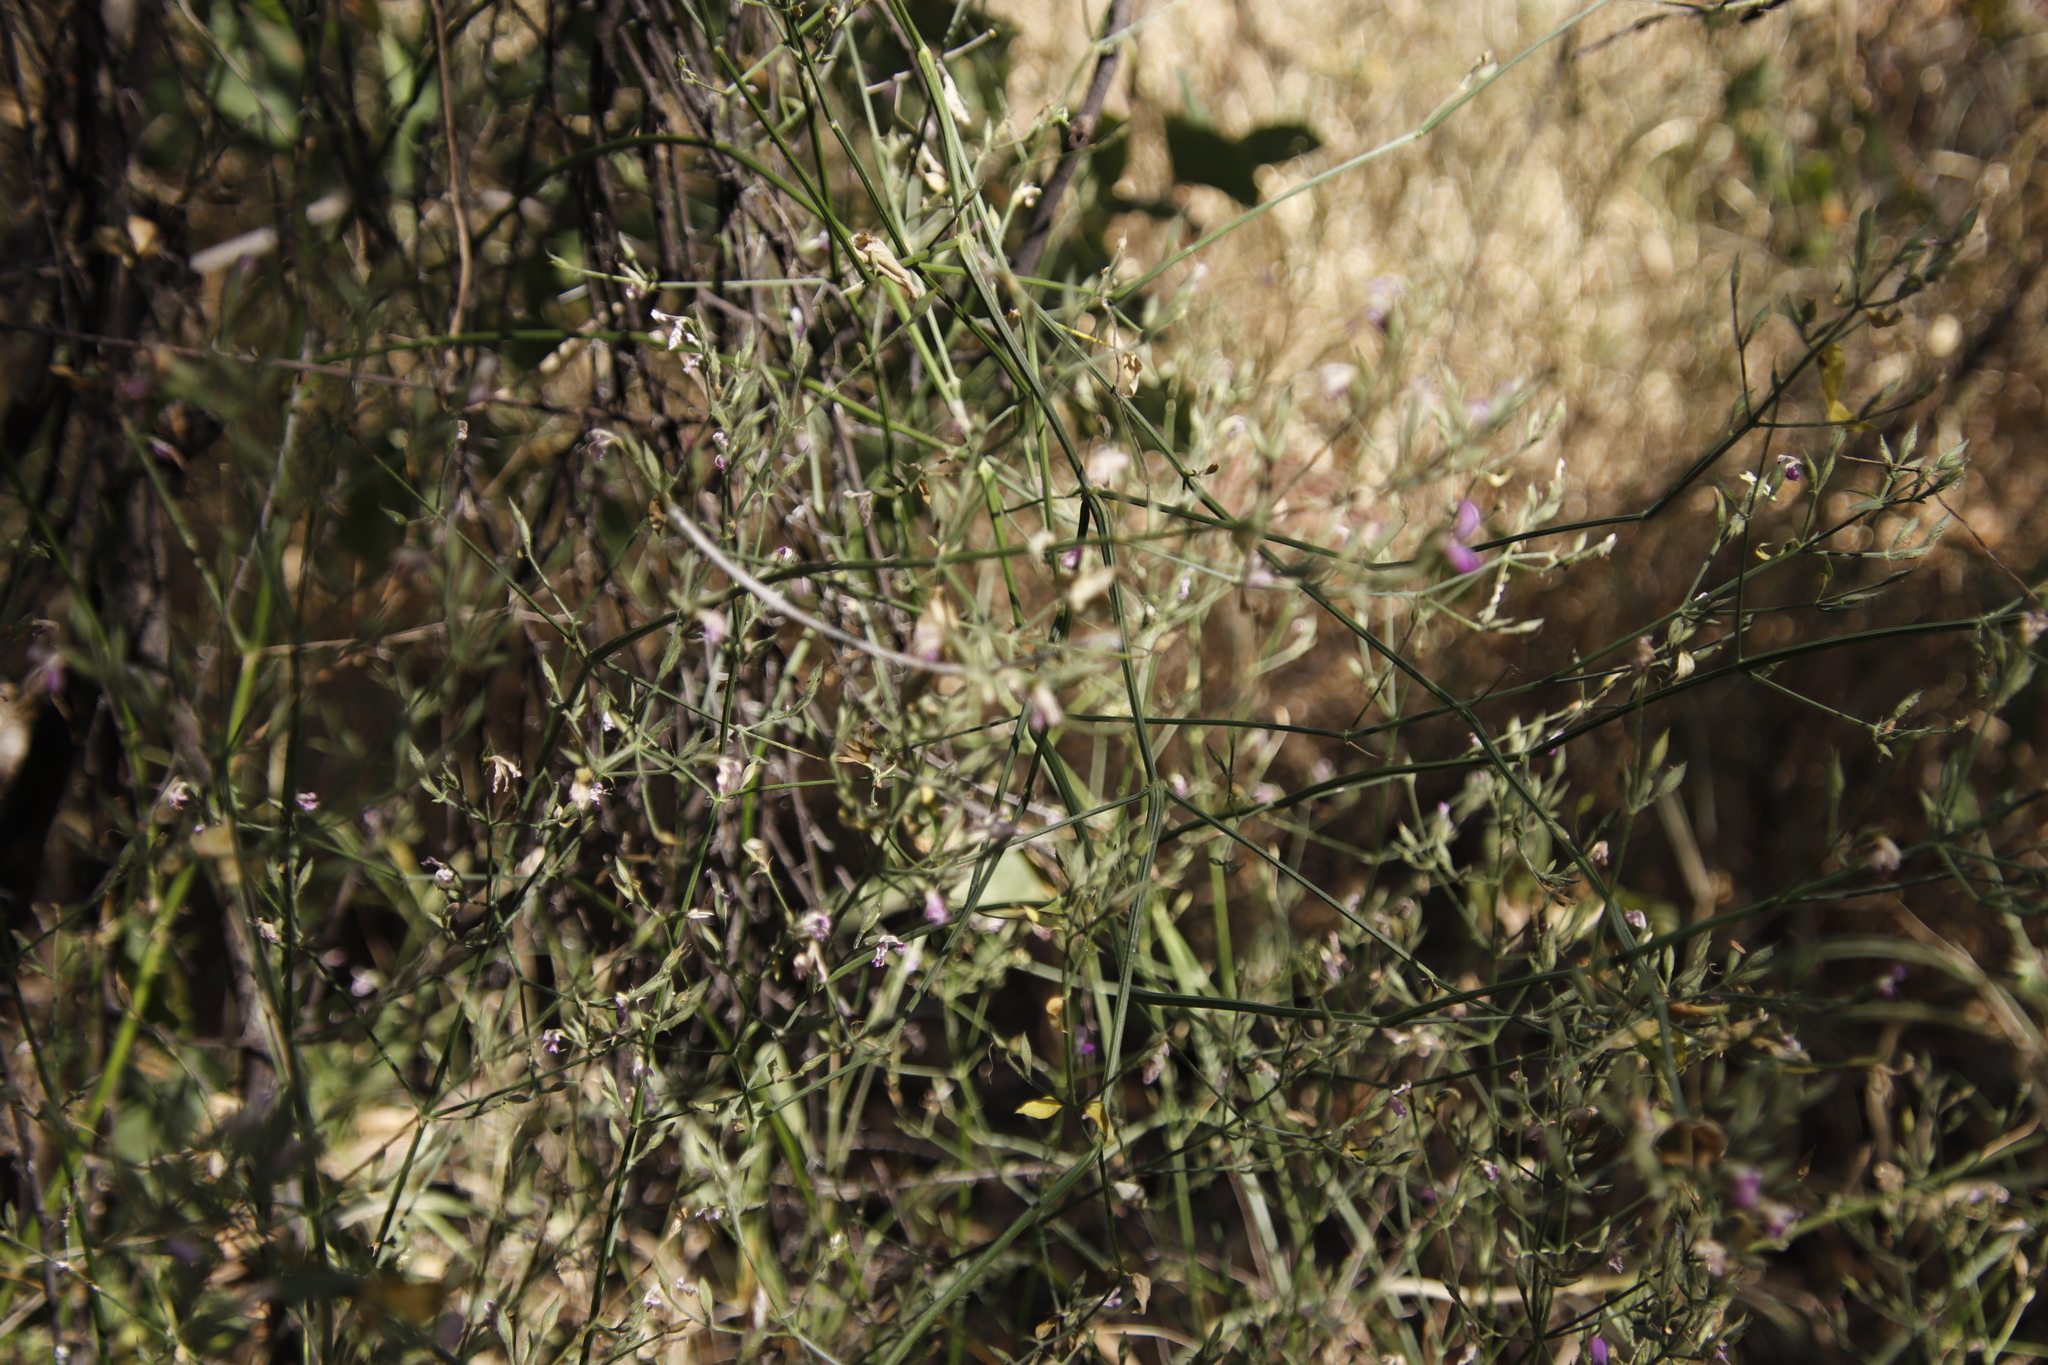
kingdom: Plantae
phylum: Tracheophyta
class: Magnoliopsida
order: Lamiales
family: Acanthaceae
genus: Dicliptera
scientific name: Dicliptera eenii
